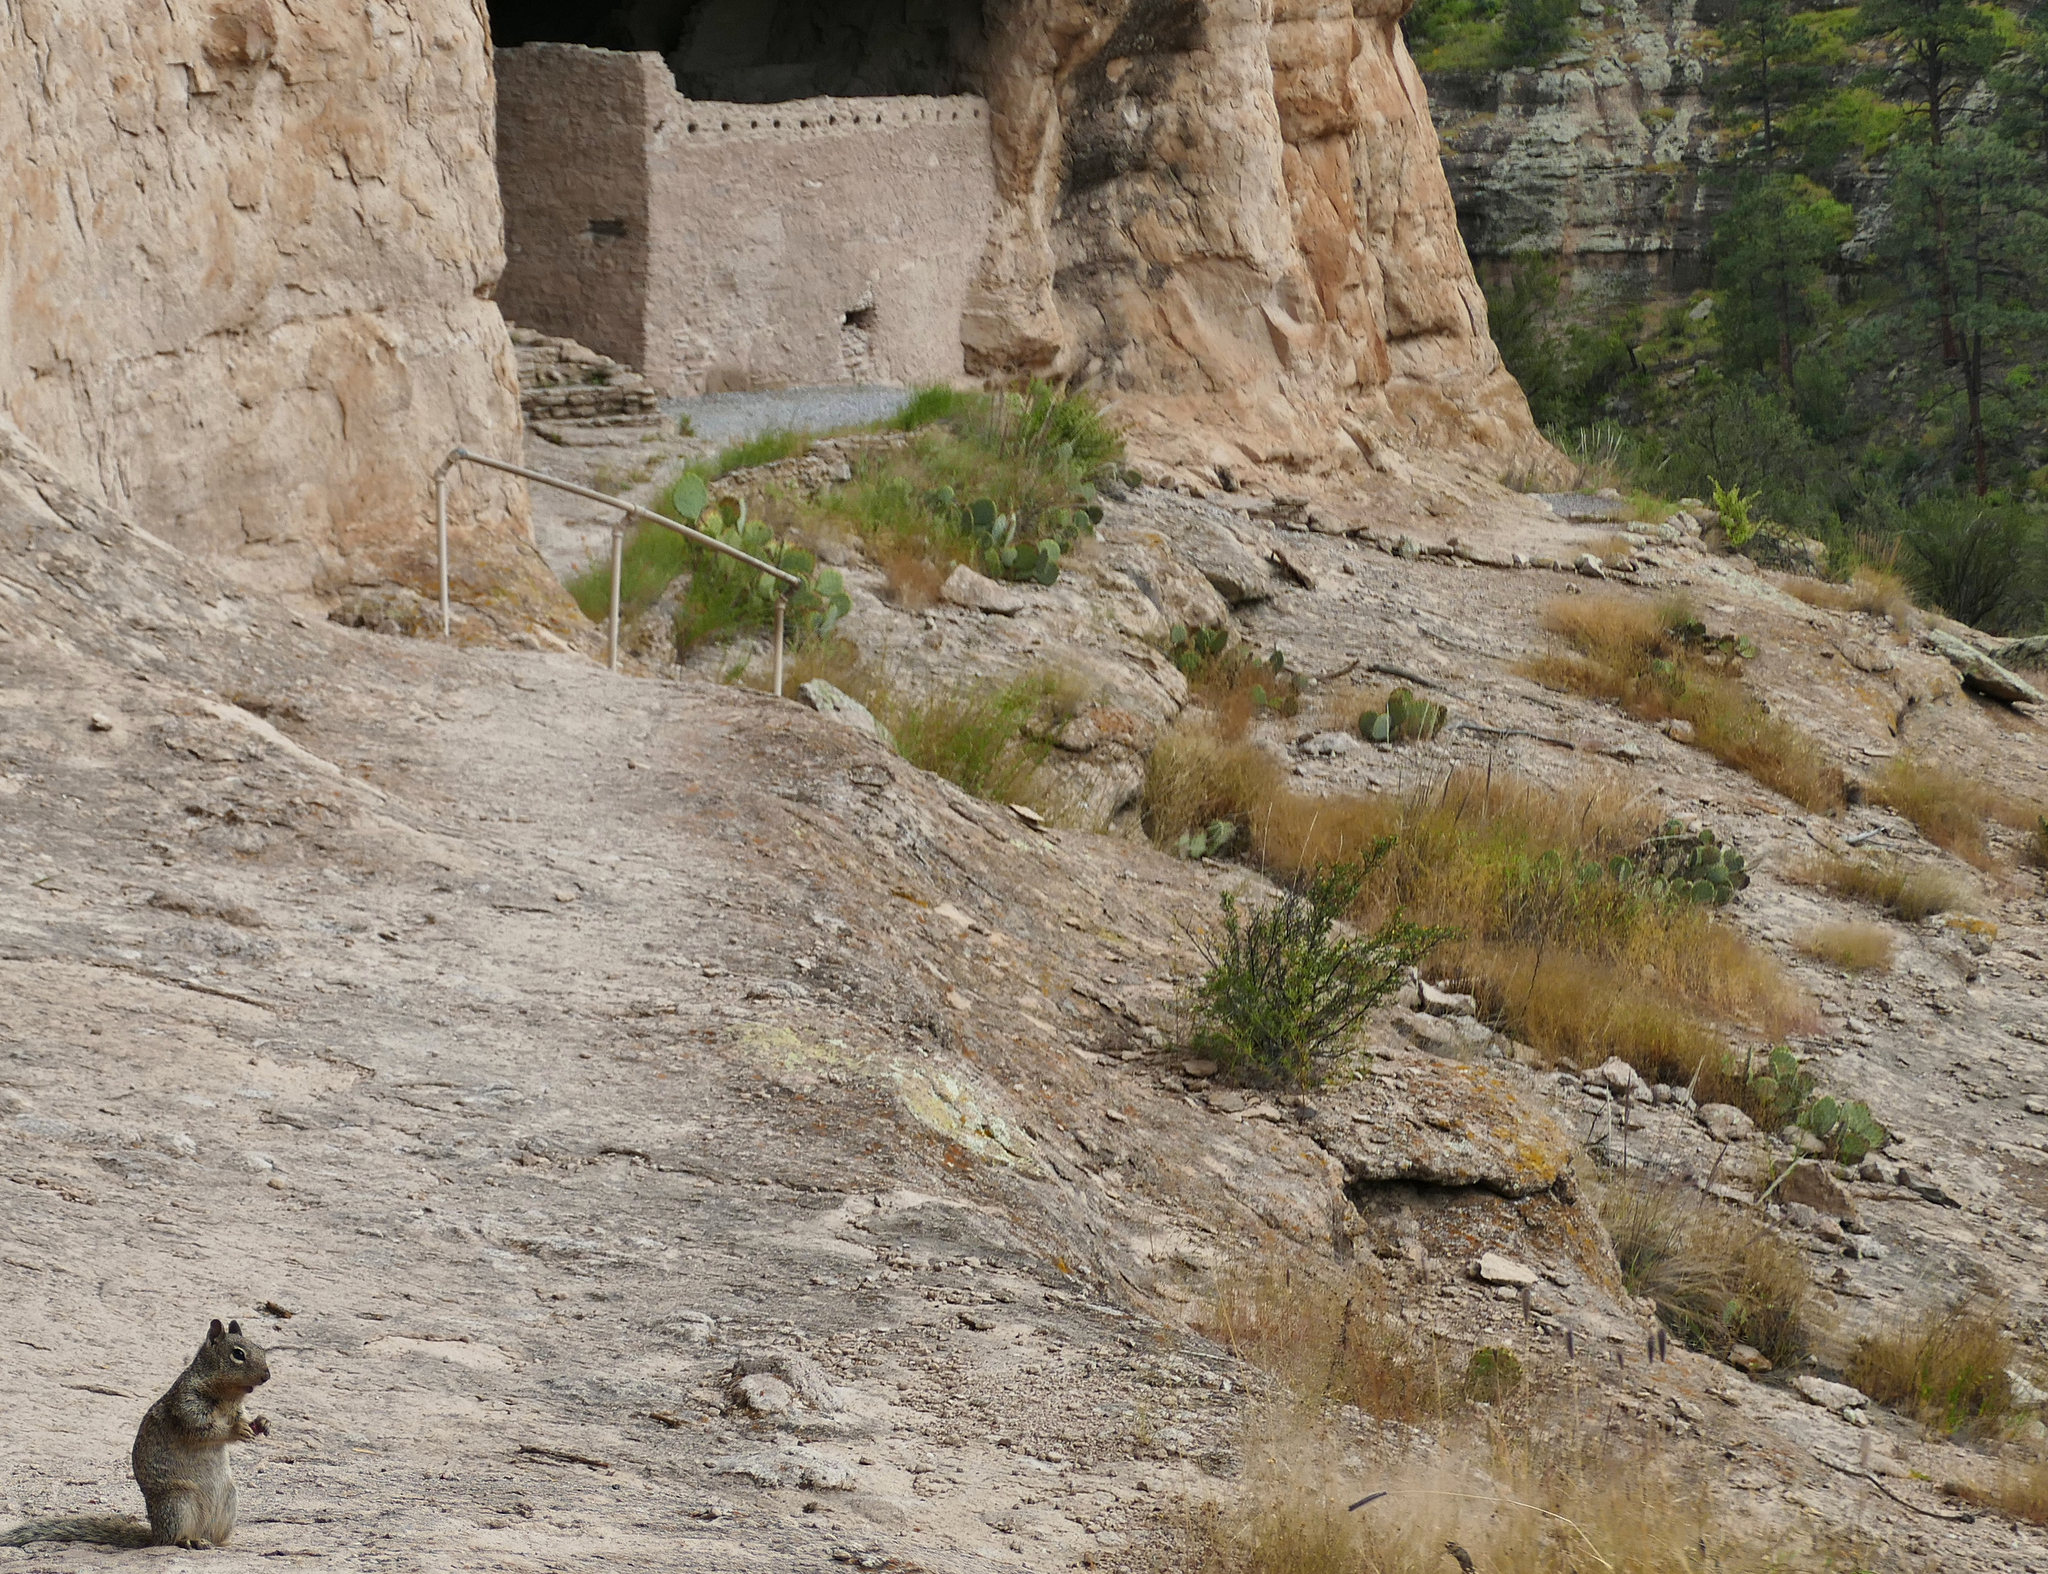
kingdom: Animalia
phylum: Chordata
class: Mammalia
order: Rodentia
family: Sciuridae
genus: Otospermophilus
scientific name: Otospermophilus variegatus
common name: Rock squirrel
